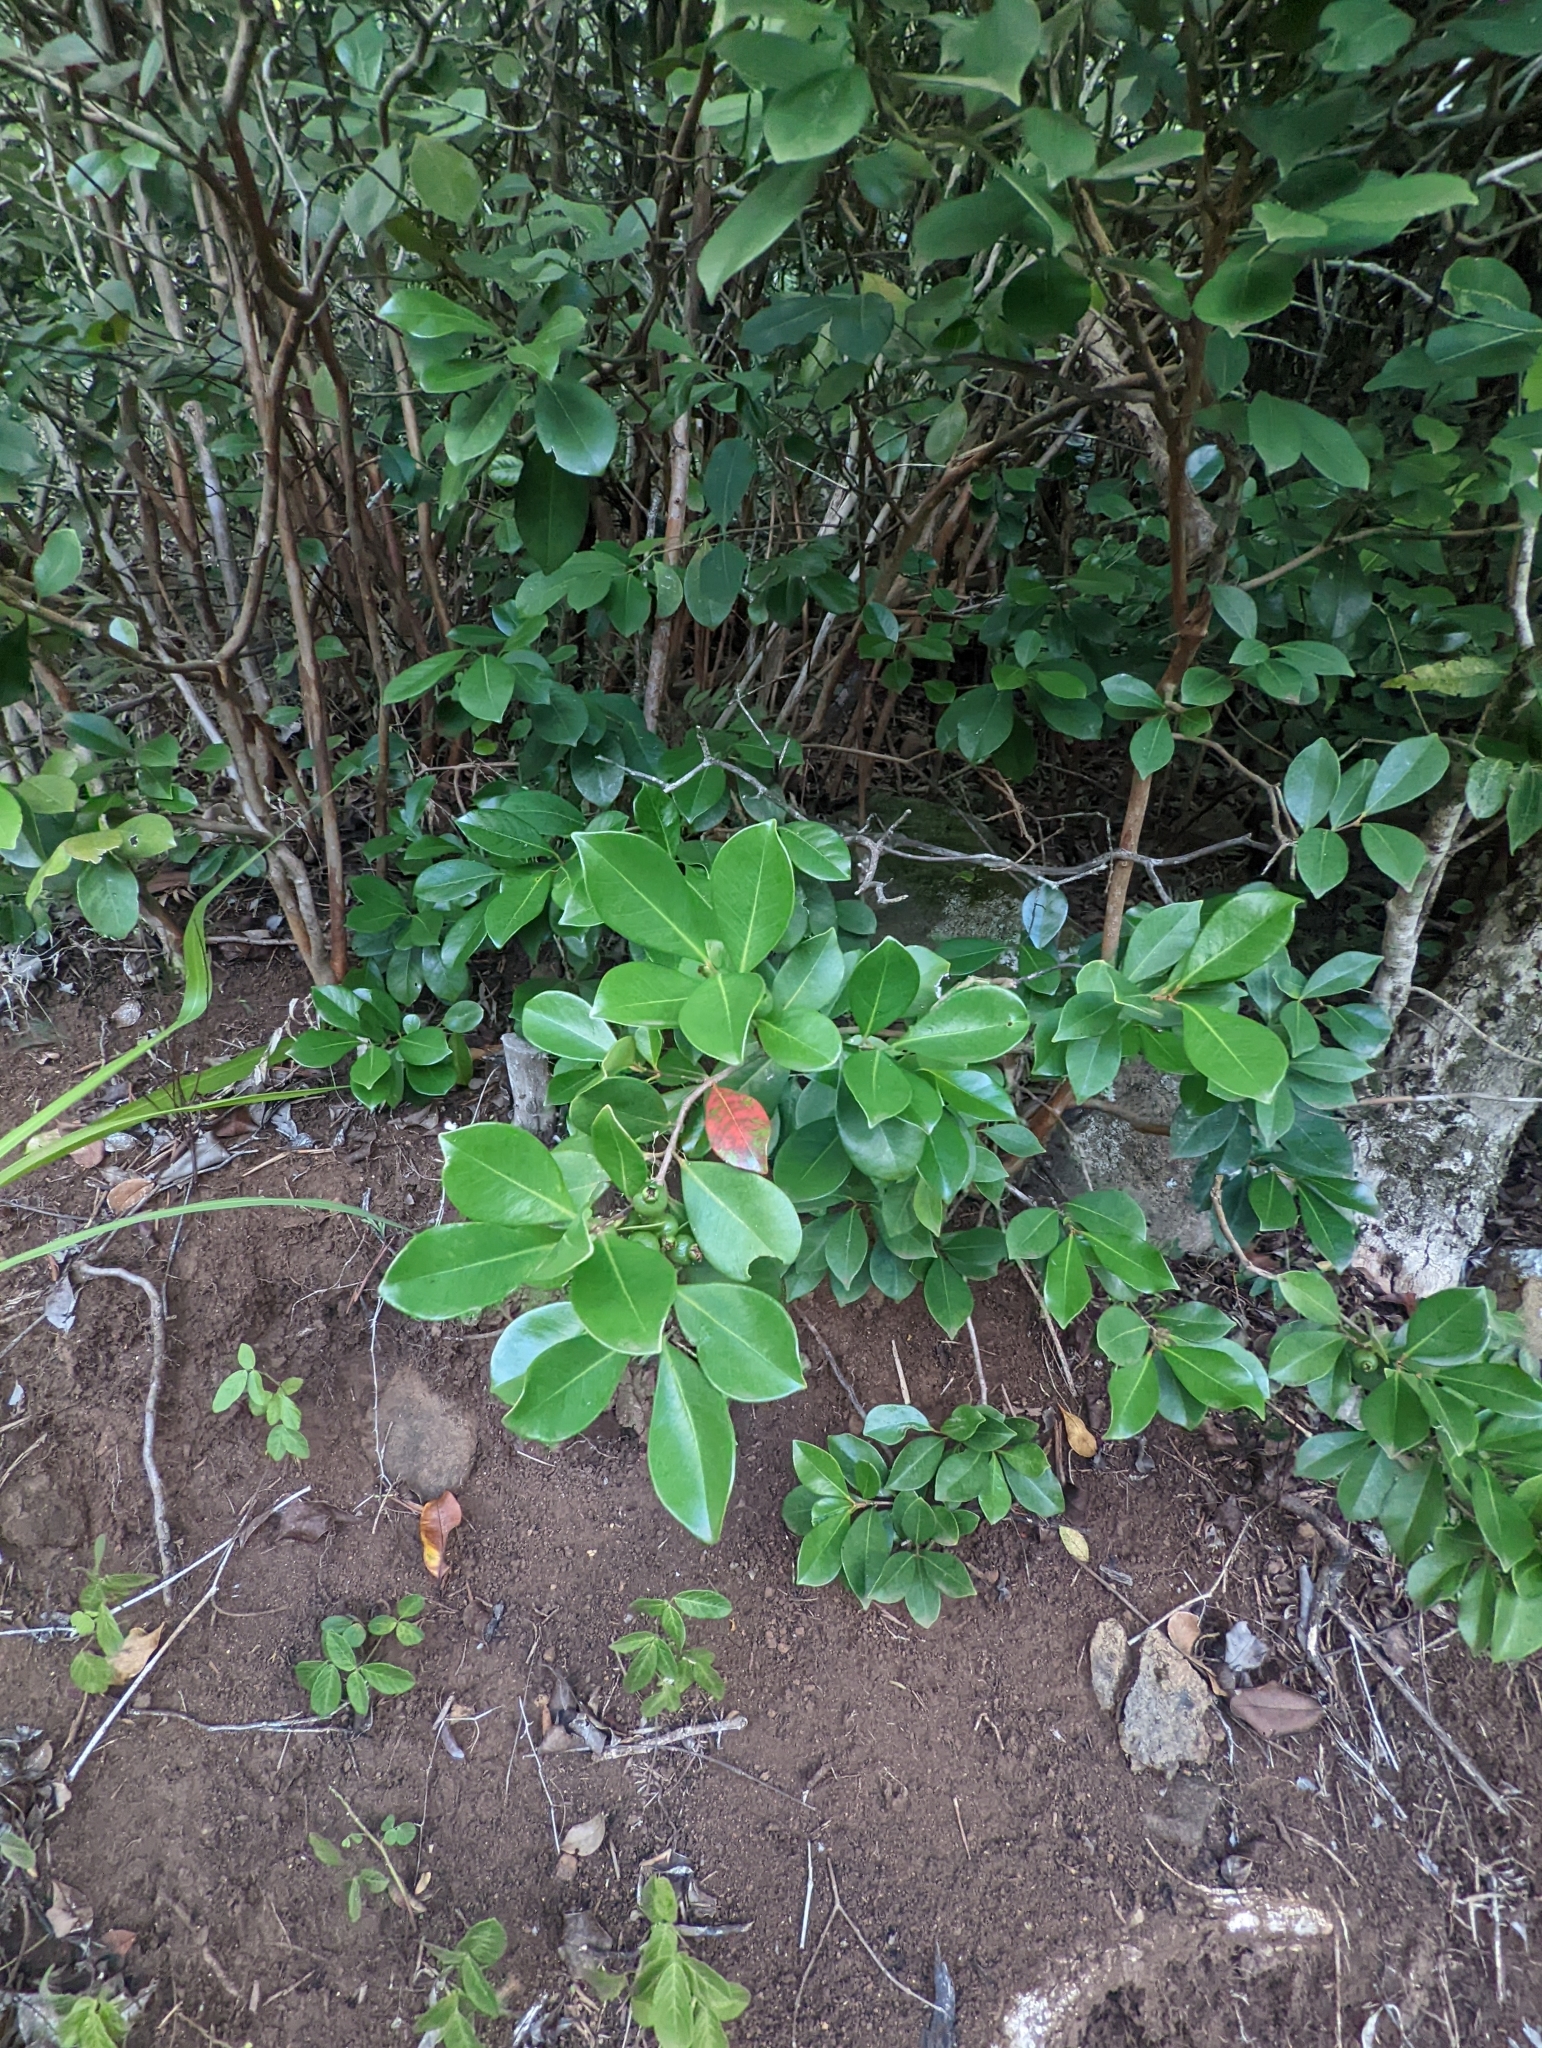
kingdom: Plantae
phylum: Tracheophyta
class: Magnoliopsida
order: Myrtales
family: Myrtaceae
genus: Psidium
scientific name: Psidium cattleianum
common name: Strawberry guava
